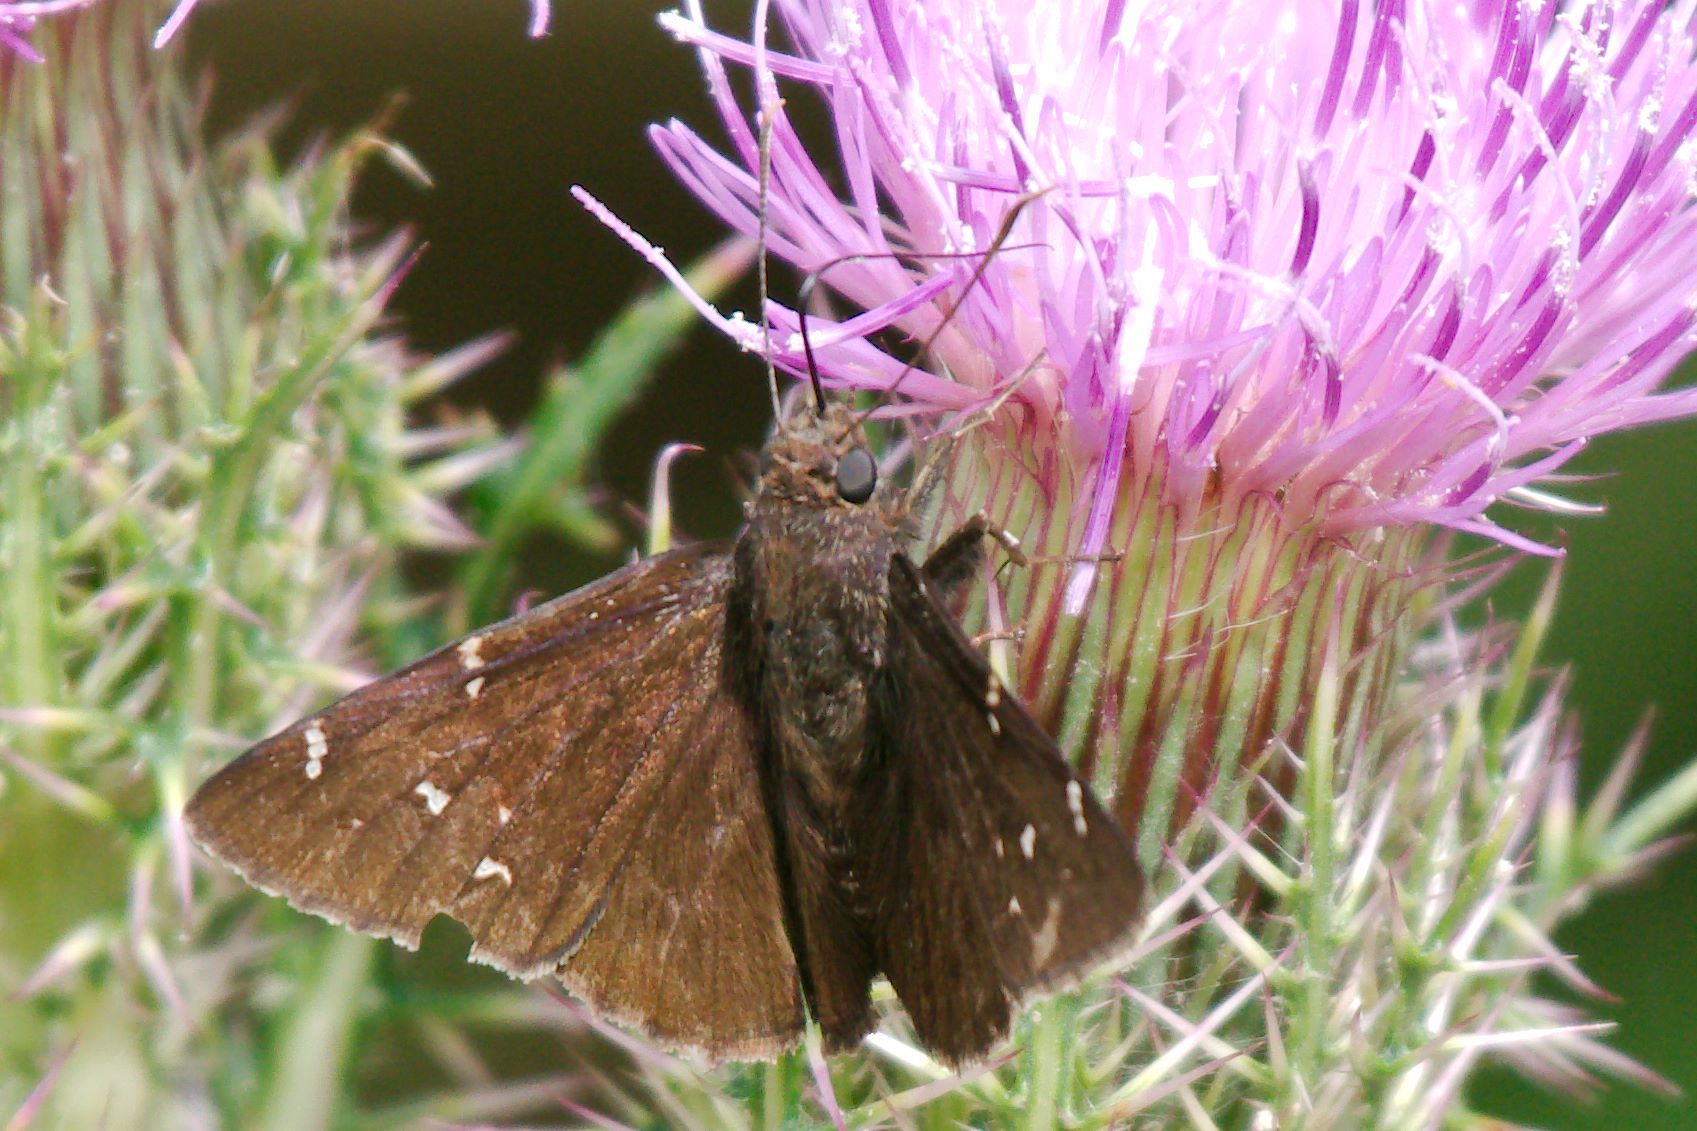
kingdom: Animalia
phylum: Arthropoda
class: Insecta
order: Lepidoptera
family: Hesperiidae
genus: Thorybes
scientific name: Thorybes pylades
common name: Northern cloudywing
